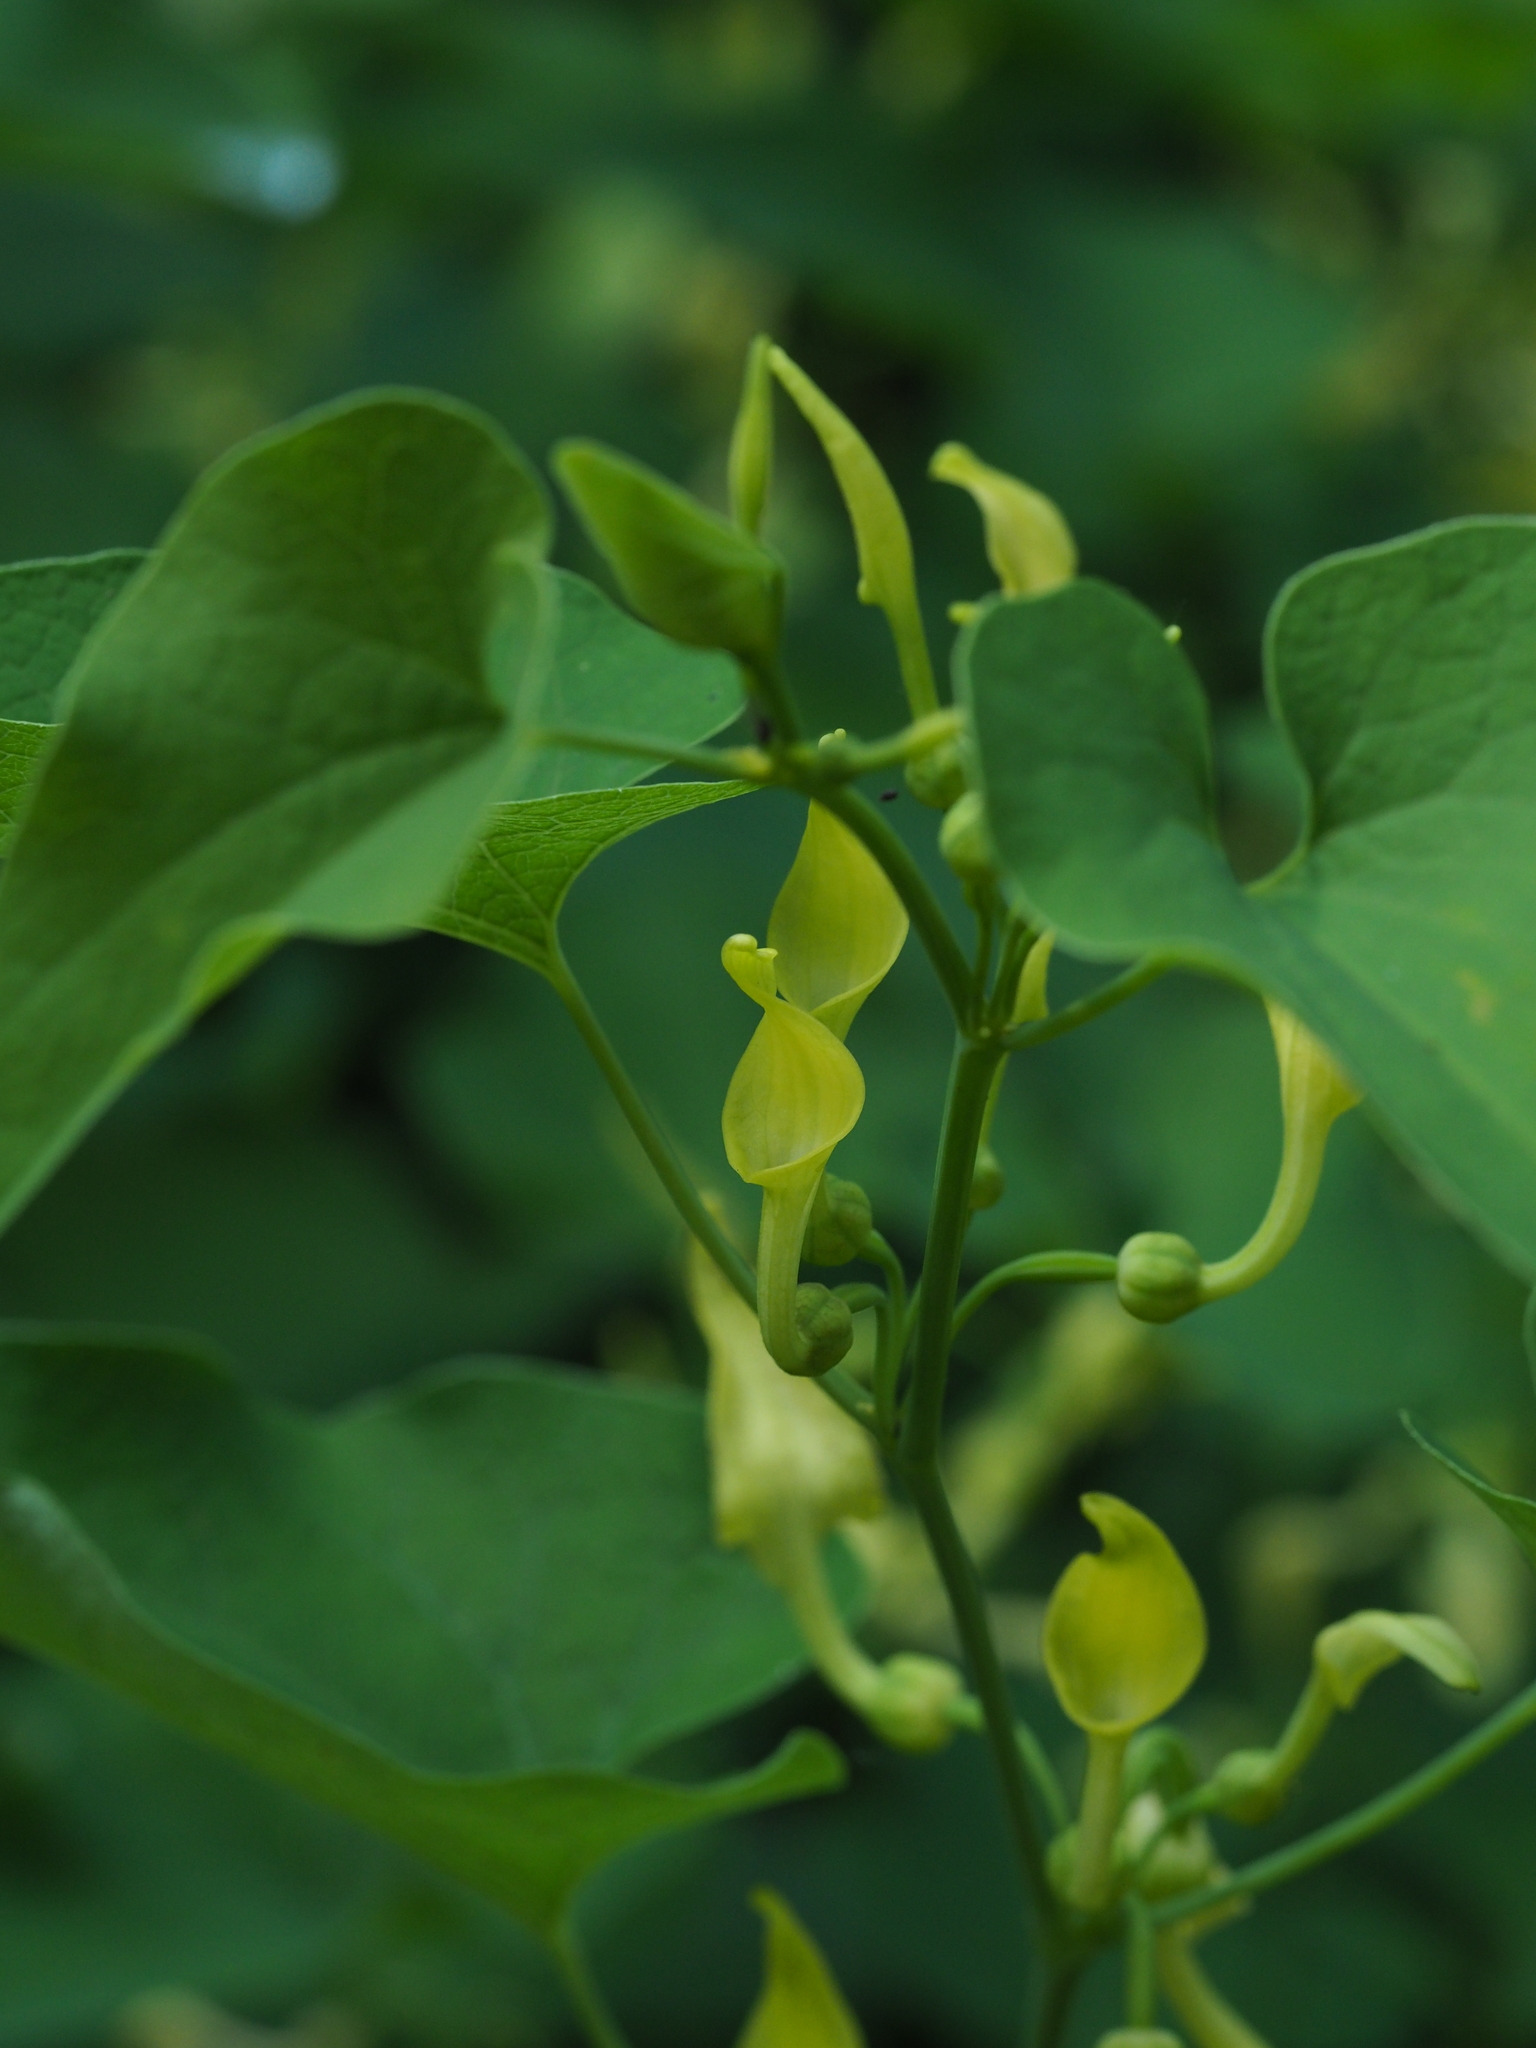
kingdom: Plantae
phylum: Tracheophyta
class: Magnoliopsida
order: Piperales
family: Aristolochiaceae
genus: Aristolochia
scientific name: Aristolochia clematitis
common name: Birthwort
